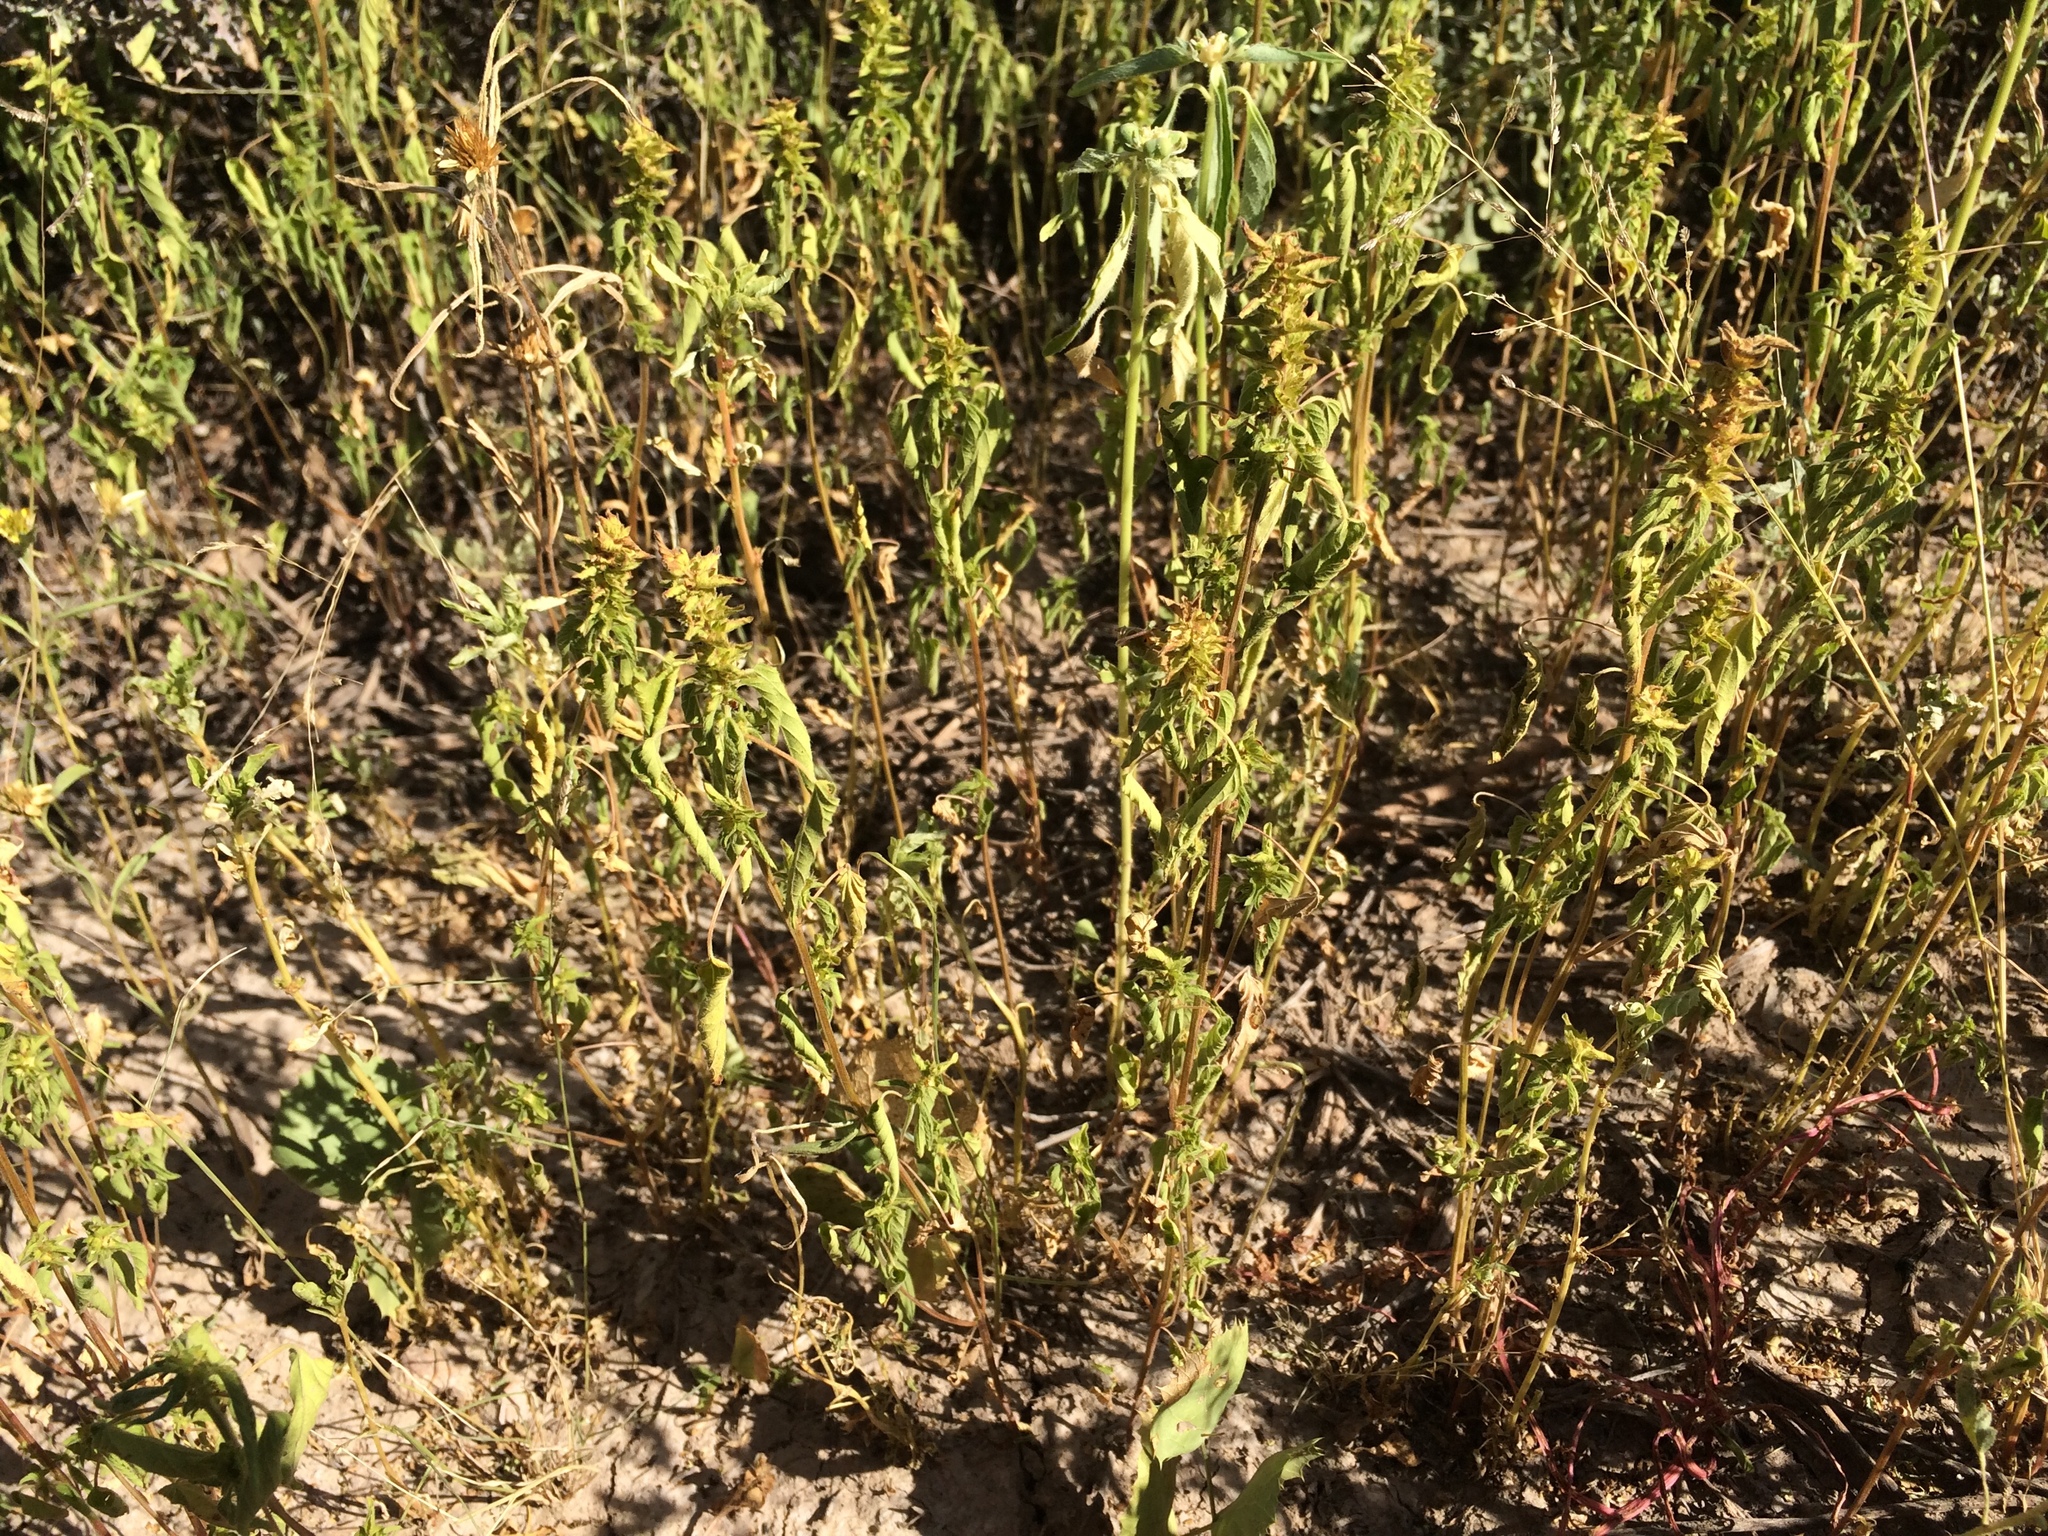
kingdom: Plantae
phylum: Tracheophyta
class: Magnoliopsida
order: Malpighiales
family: Euphorbiaceae
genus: Acalypha
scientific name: Acalypha neomexicana
